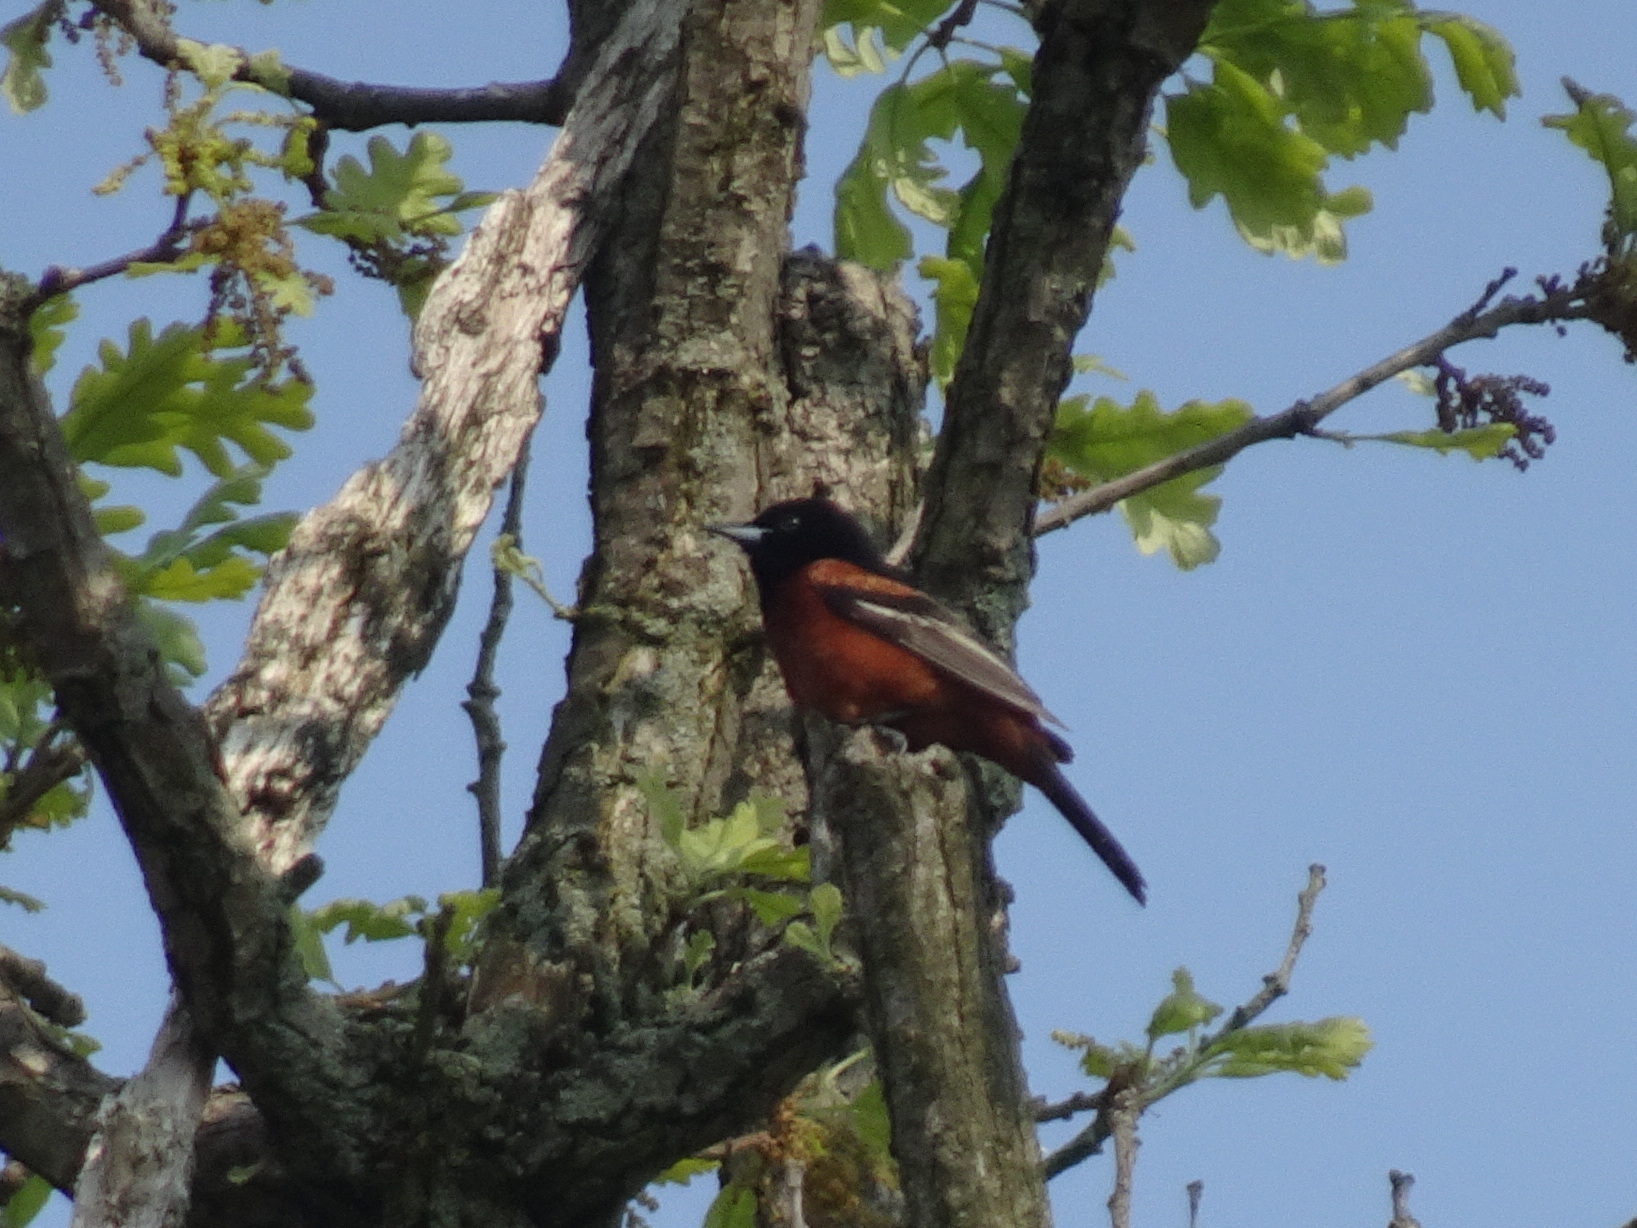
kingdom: Animalia
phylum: Chordata
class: Aves
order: Passeriformes
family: Icteridae
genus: Icterus
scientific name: Icterus spurius
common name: Orchard oriole
